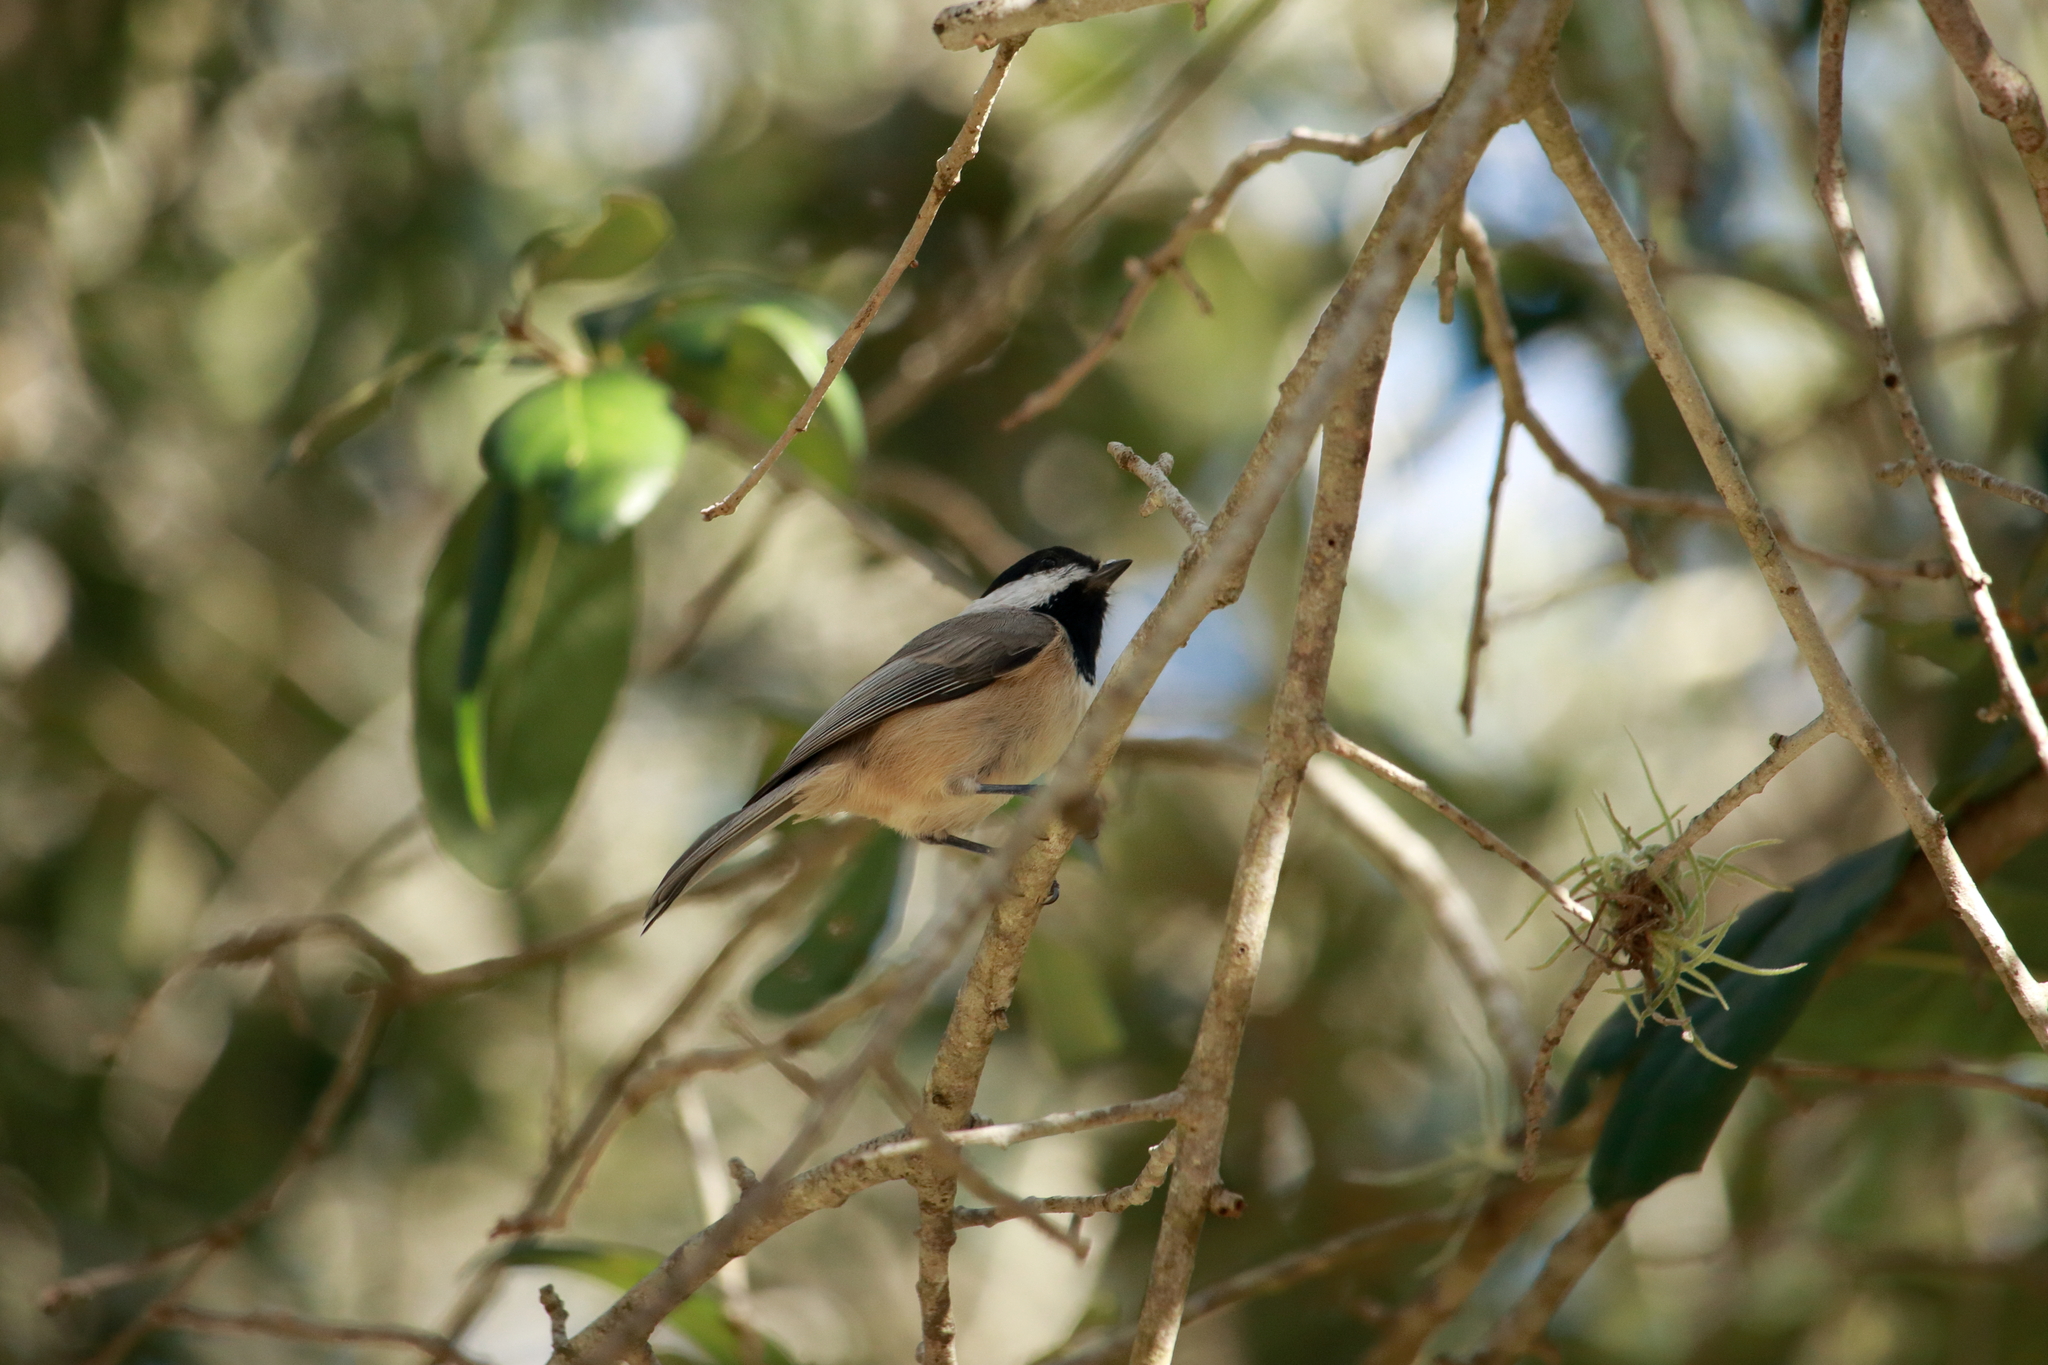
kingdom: Animalia
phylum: Chordata
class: Aves
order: Passeriformes
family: Paridae
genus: Poecile
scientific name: Poecile carolinensis
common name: Carolina chickadee
